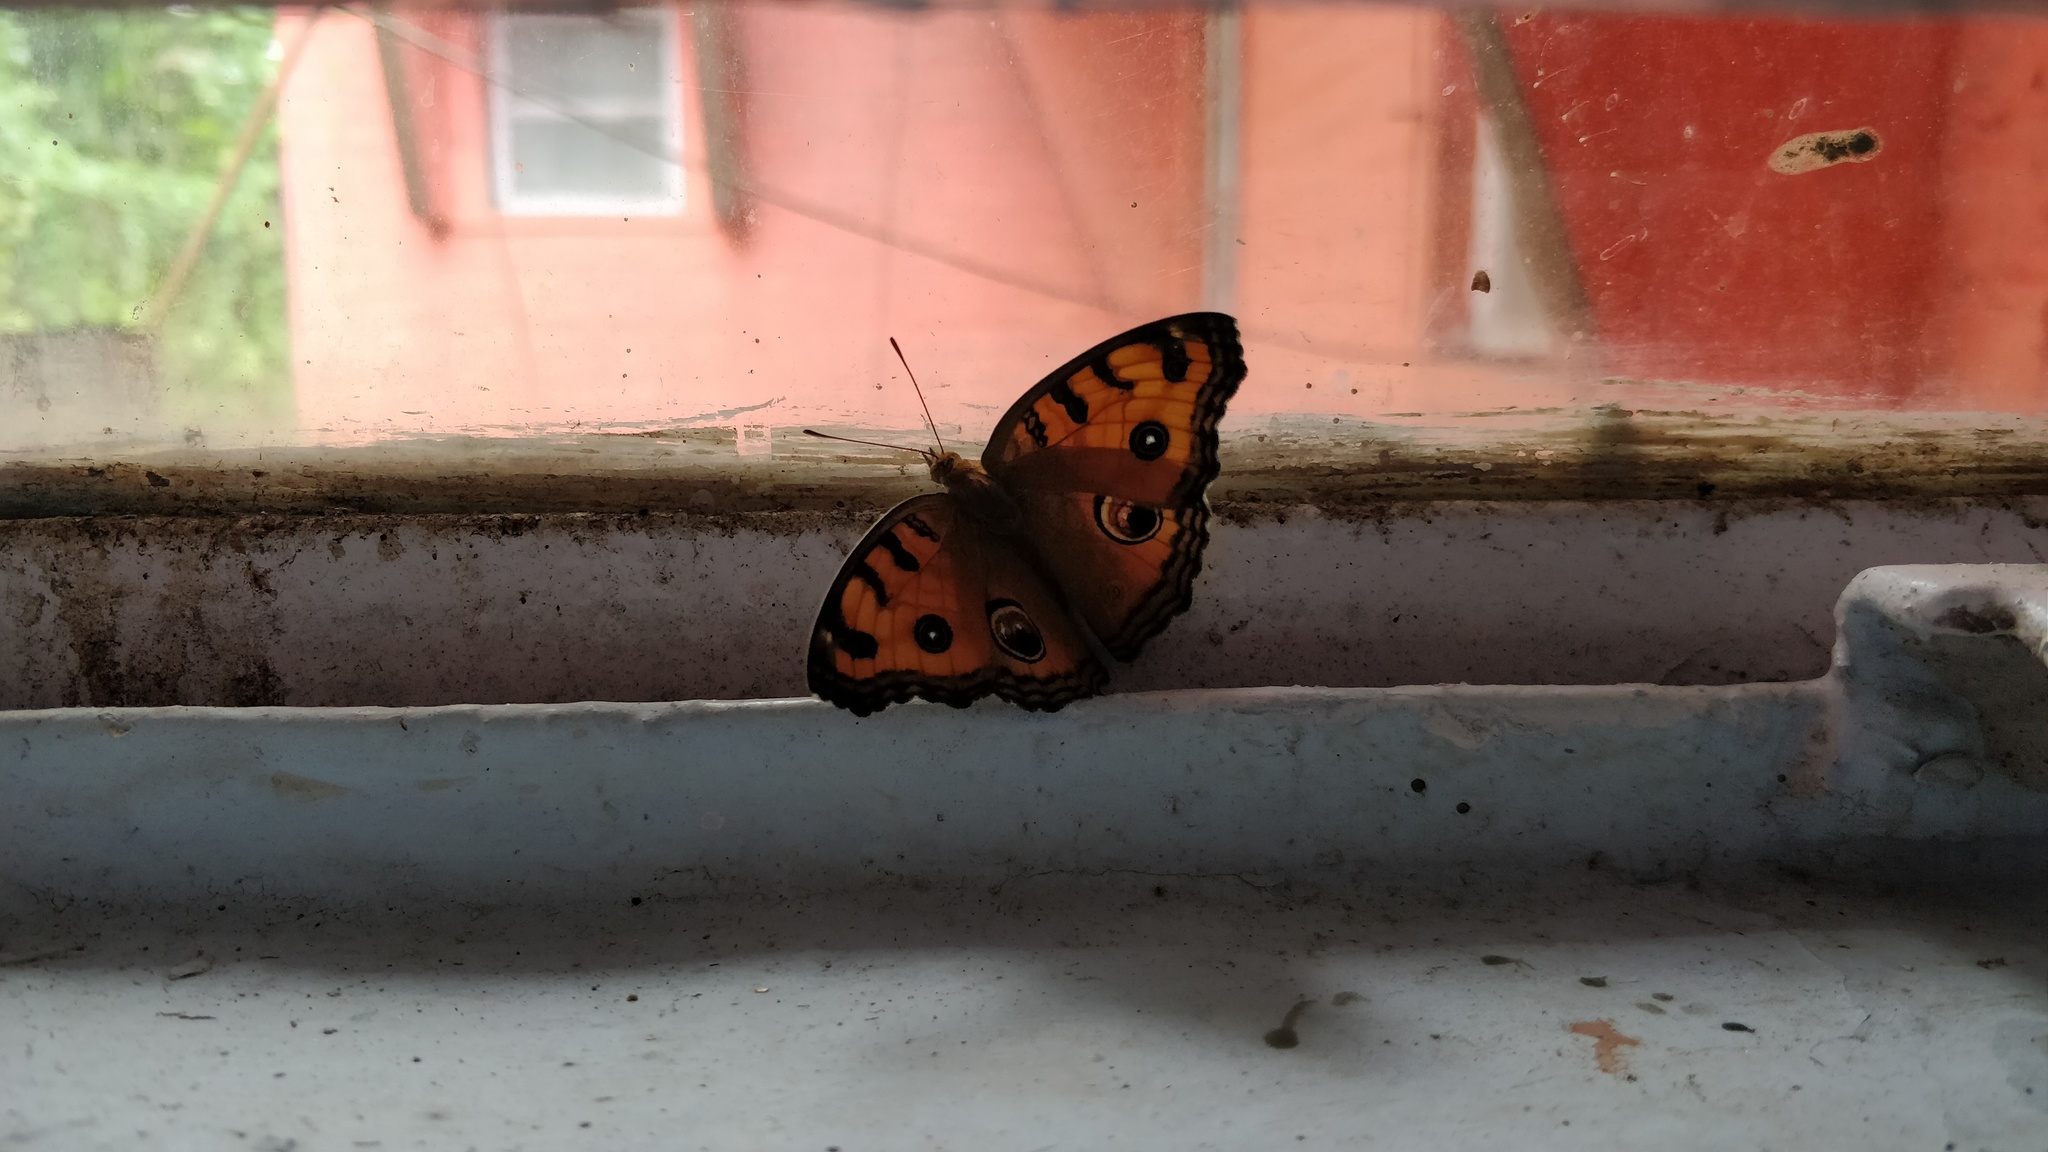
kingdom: Animalia
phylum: Arthropoda
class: Insecta
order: Lepidoptera
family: Nymphalidae
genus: Junonia
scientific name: Junonia almana
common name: Peacock pansy
